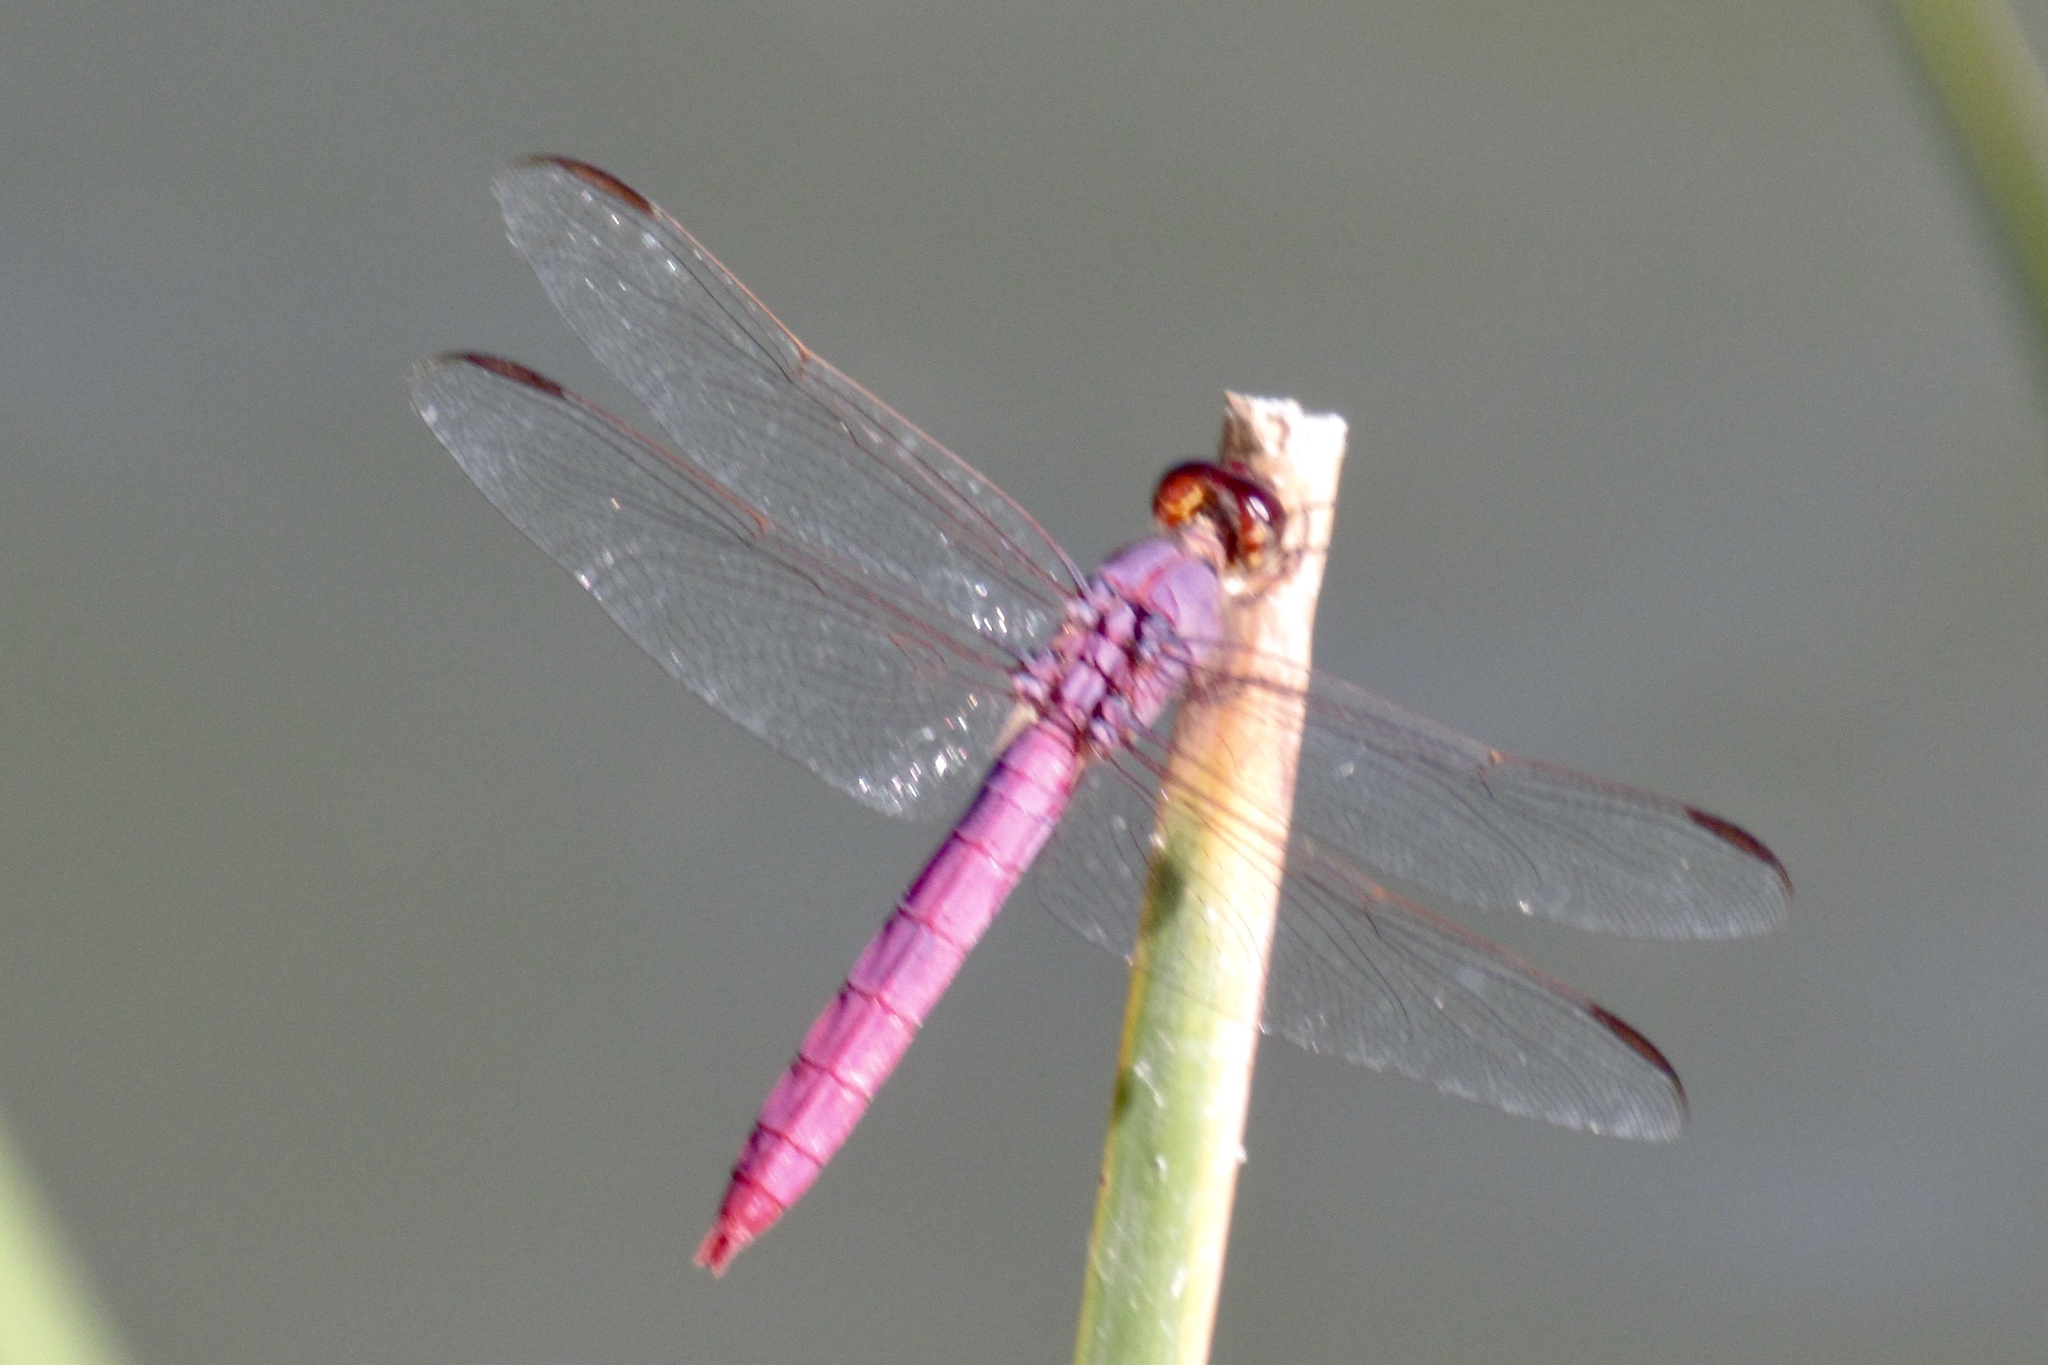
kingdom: Animalia
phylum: Arthropoda
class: Insecta
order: Odonata
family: Libellulidae
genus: Orthemis
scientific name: Orthemis ferruginea
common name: Roseate skimmer
